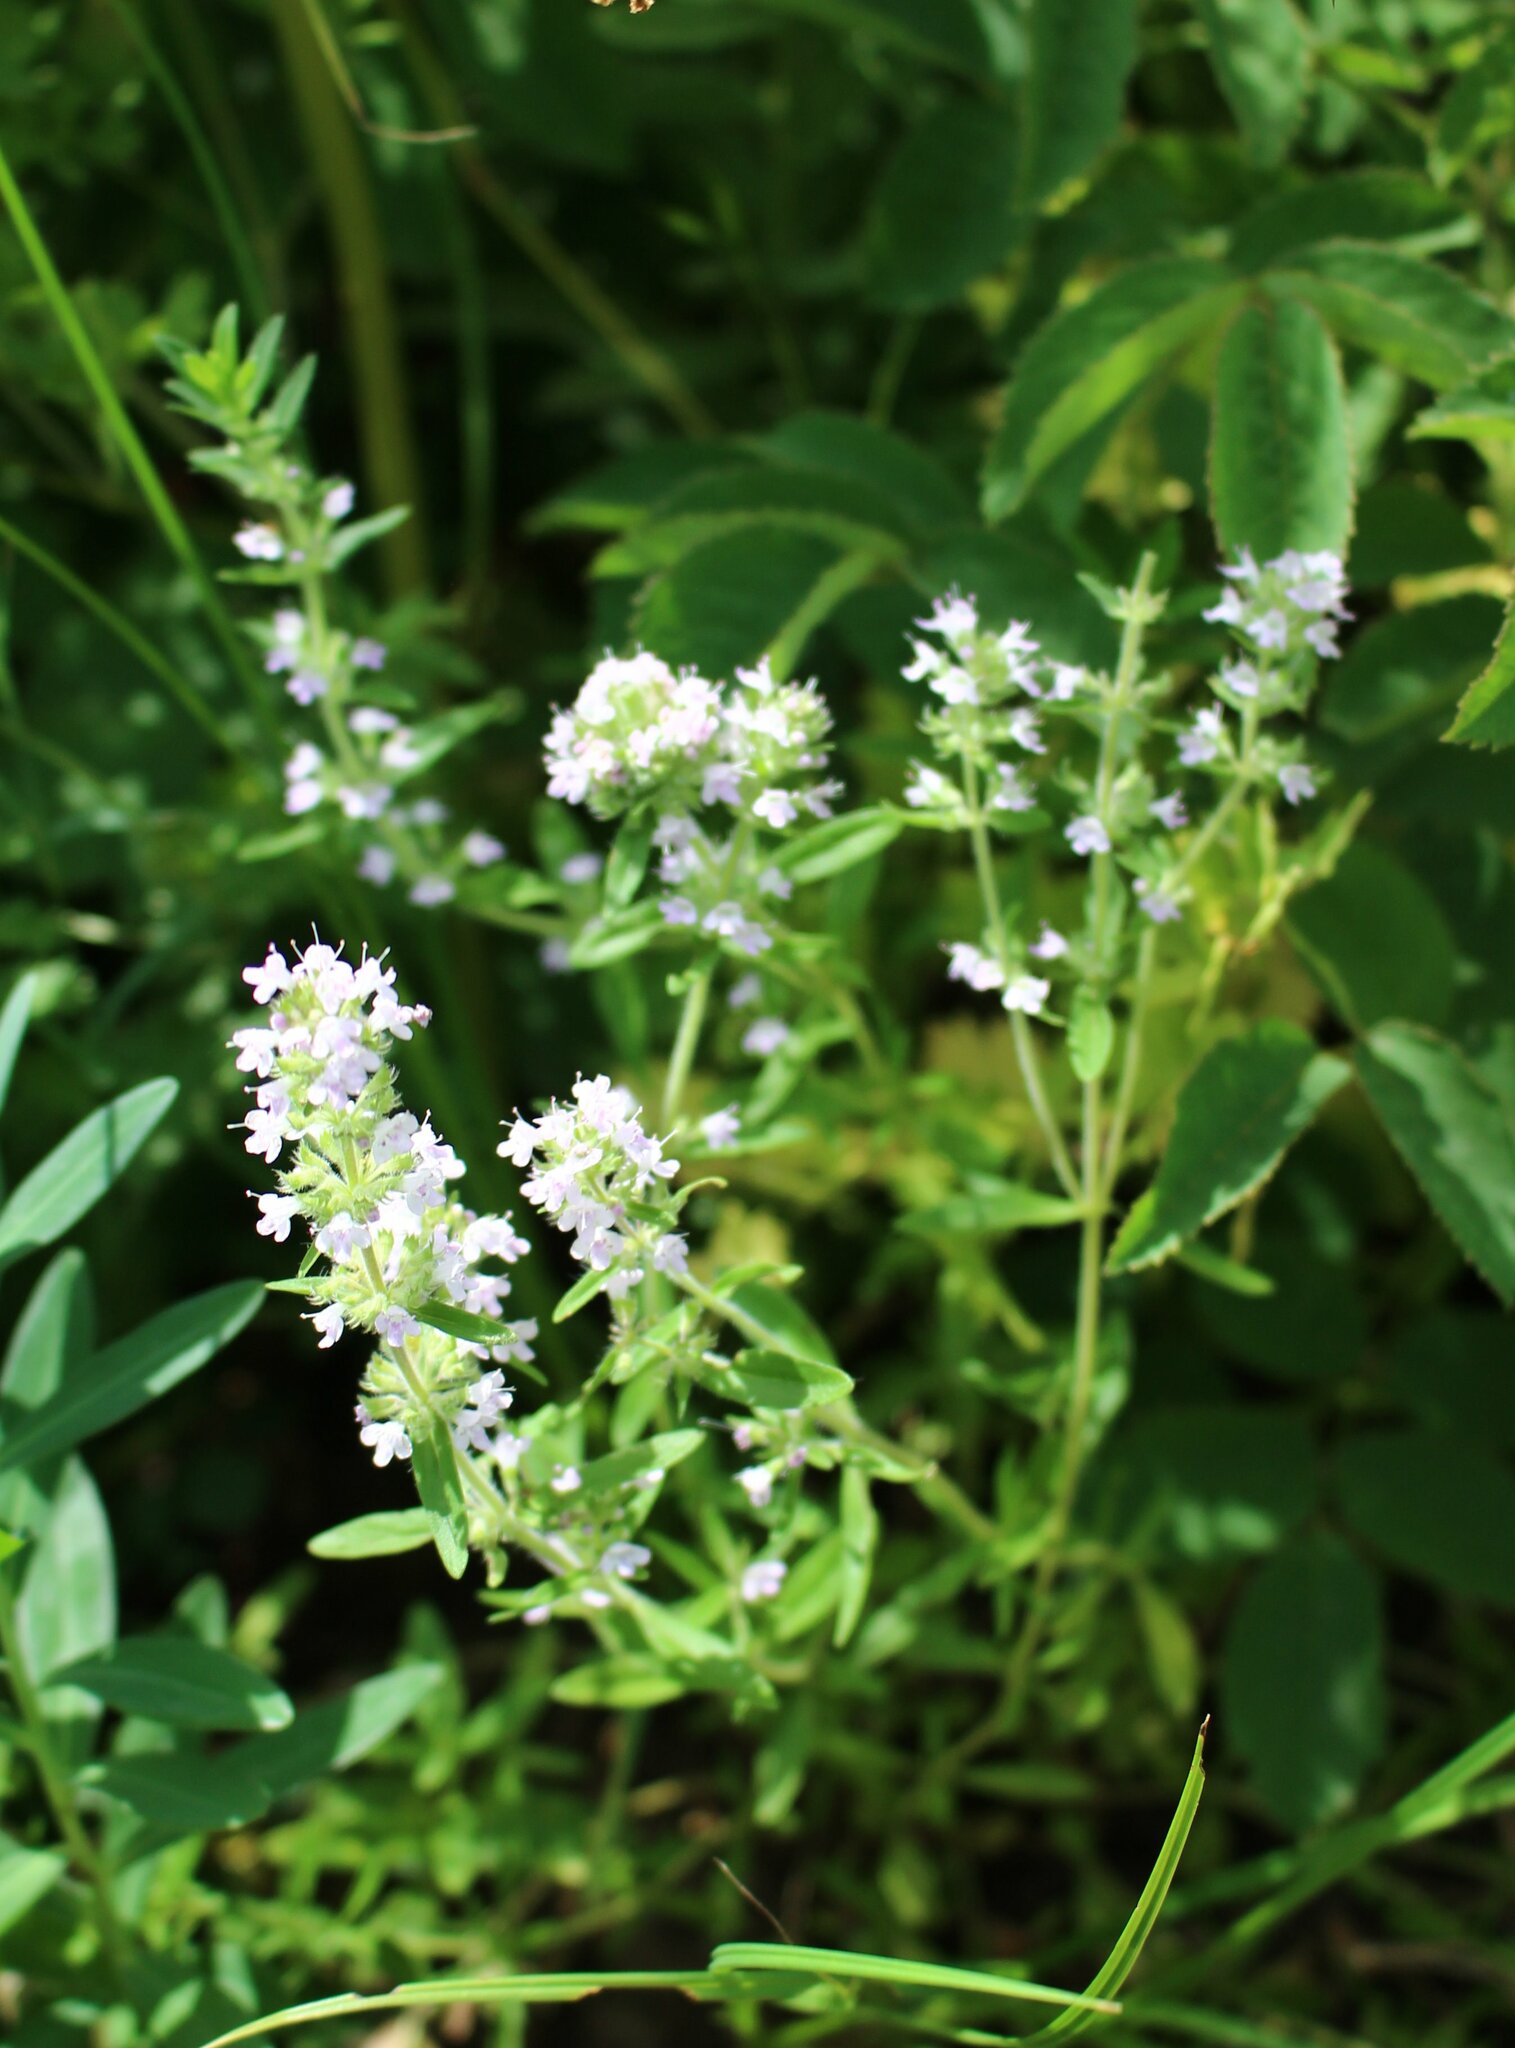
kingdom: Plantae
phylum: Tracheophyta
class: Magnoliopsida
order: Lamiales
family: Lamiaceae
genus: Thymus
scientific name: Thymus pannonicus
